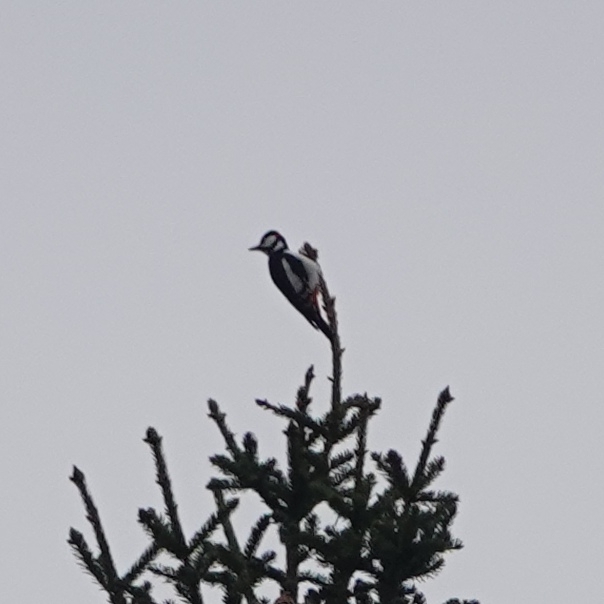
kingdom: Animalia
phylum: Chordata
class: Aves
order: Piciformes
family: Picidae
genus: Dendrocopos
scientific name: Dendrocopos major
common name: Great spotted woodpecker
